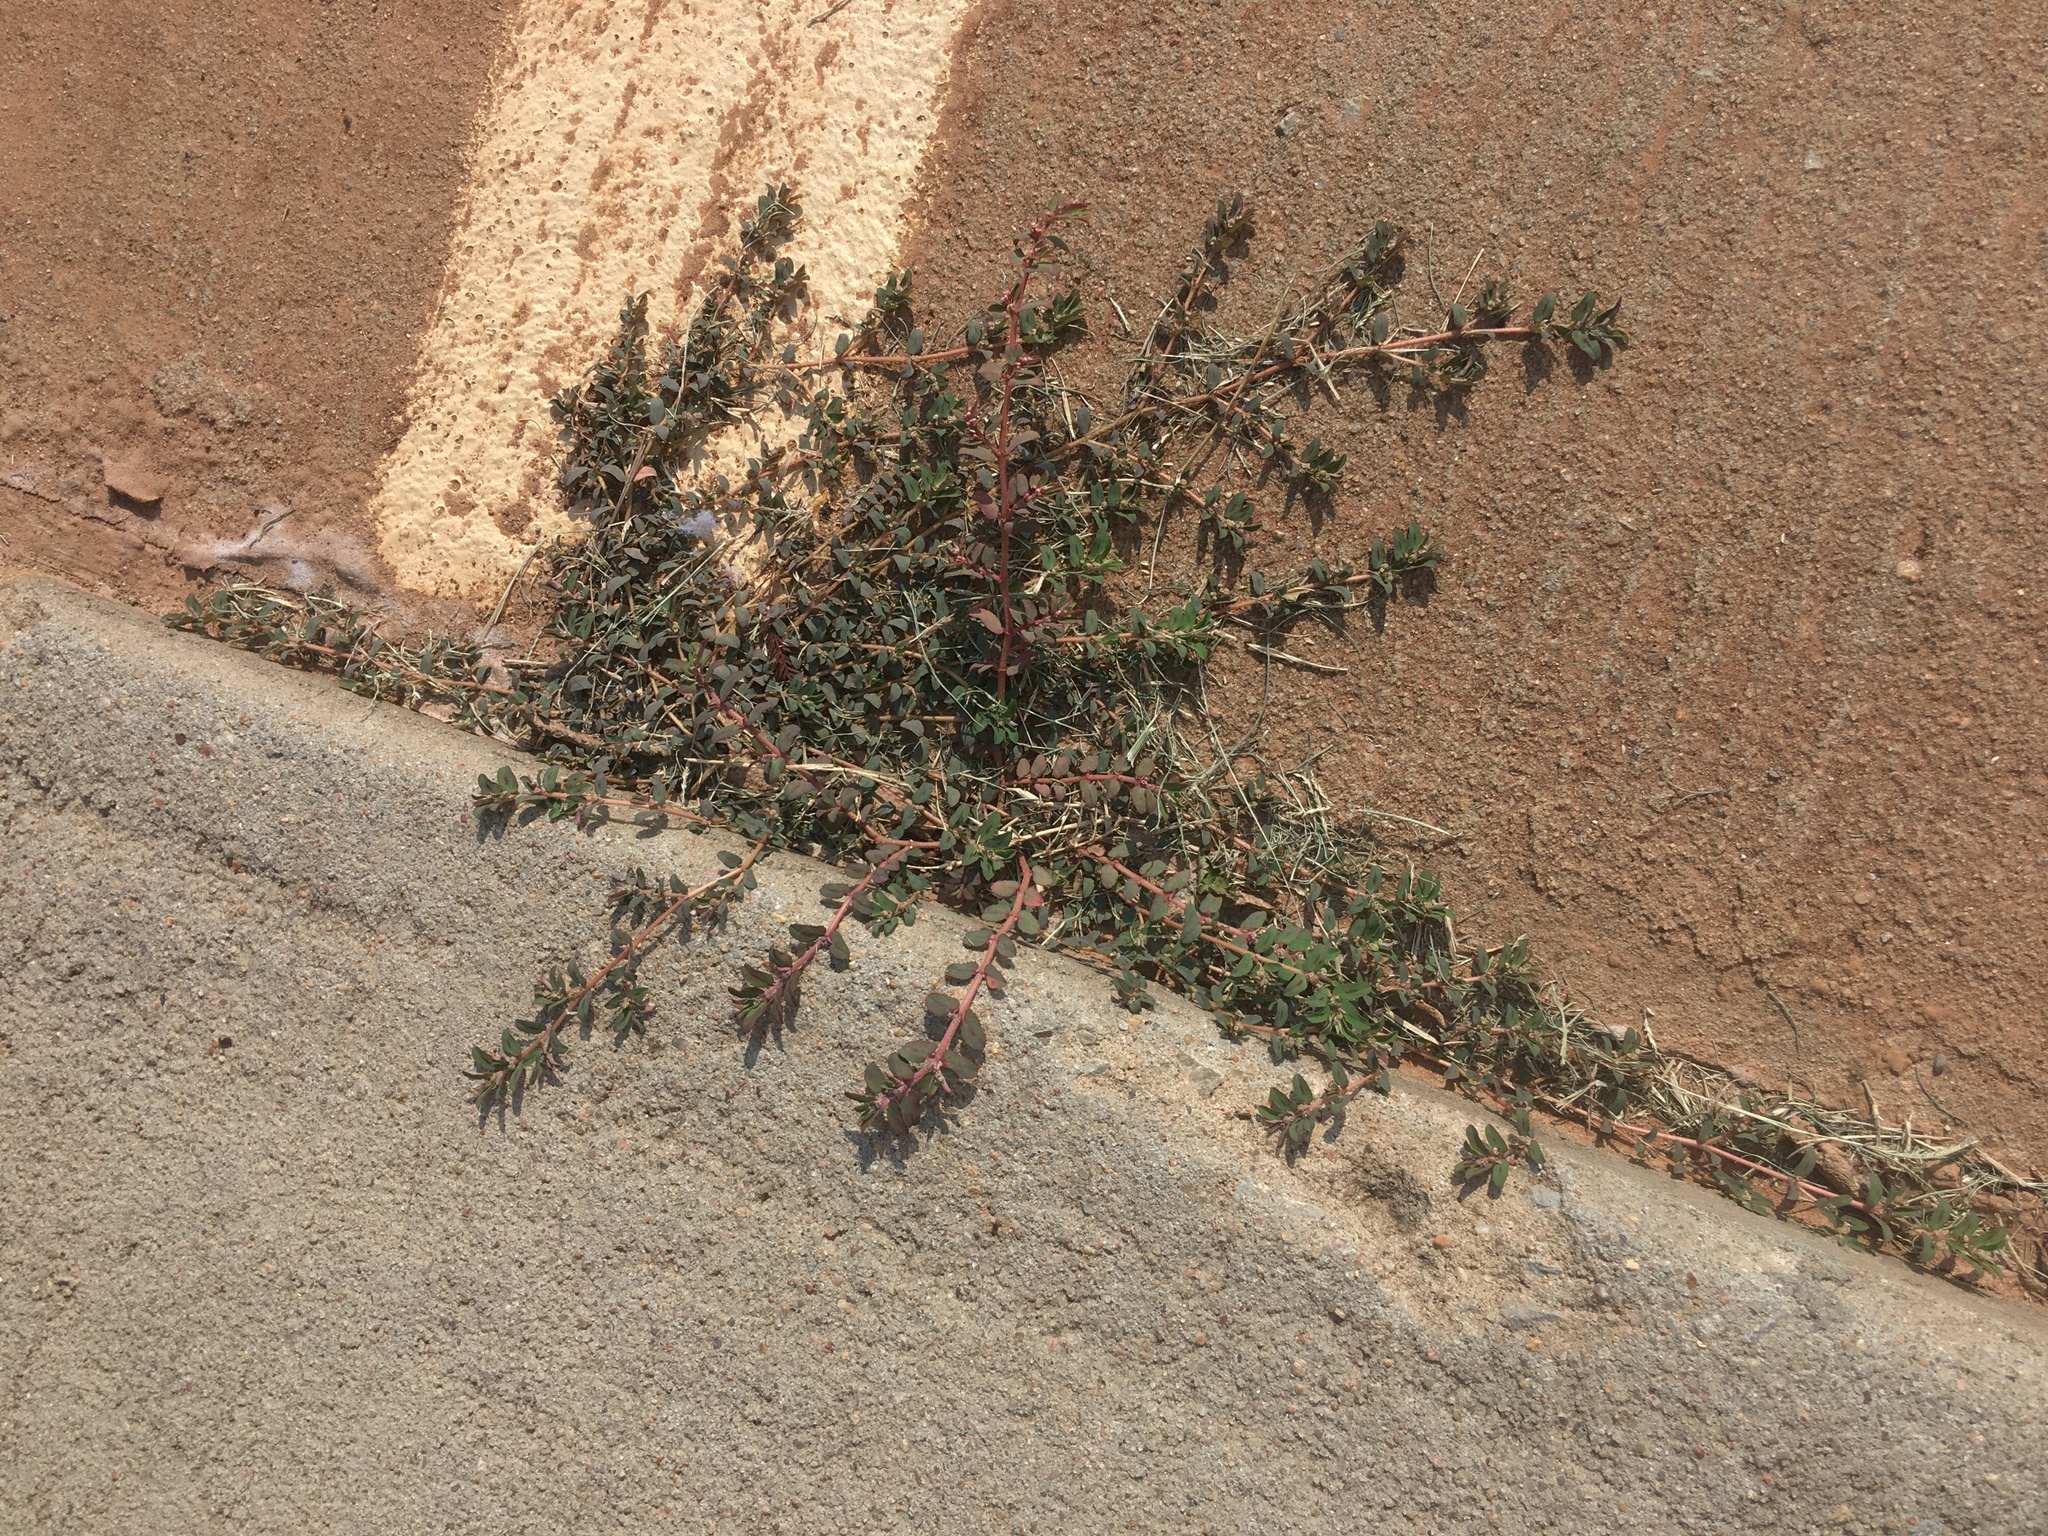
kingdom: Plantae
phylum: Tracheophyta
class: Magnoliopsida
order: Malpighiales
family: Euphorbiaceae
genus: Euphorbia
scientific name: Euphorbia maculata
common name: Spotted spurge
